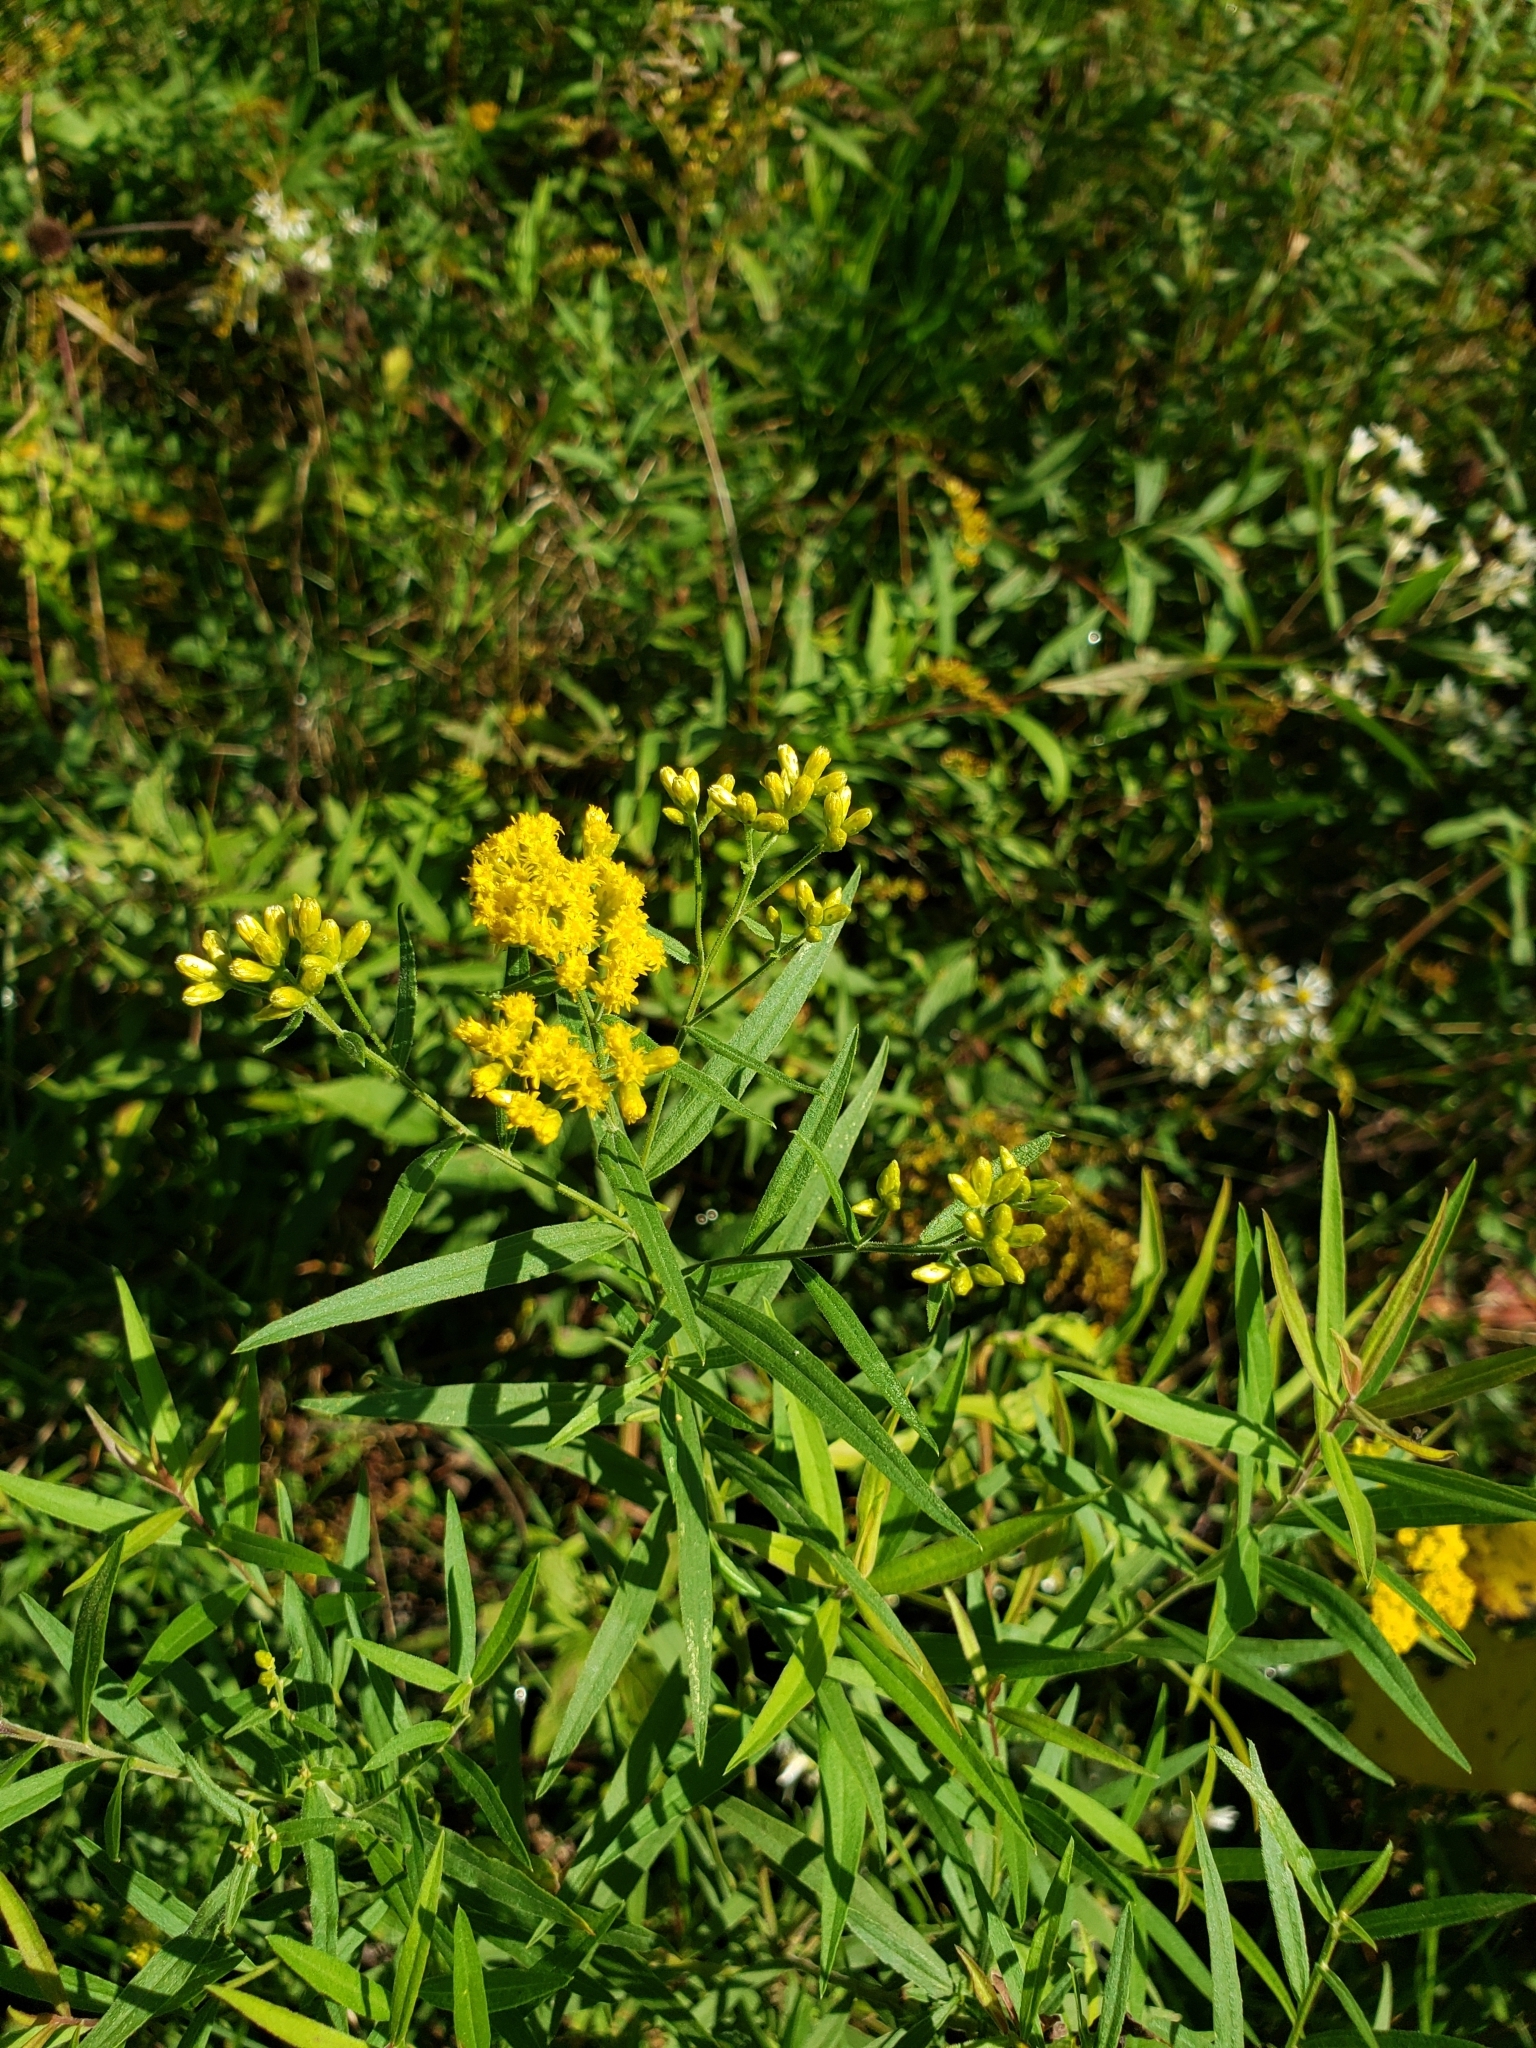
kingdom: Plantae
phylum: Tracheophyta
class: Magnoliopsida
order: Asterales
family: Asteraceae
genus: Euthamia
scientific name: Euthamia graminifolia
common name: Common goldentop
